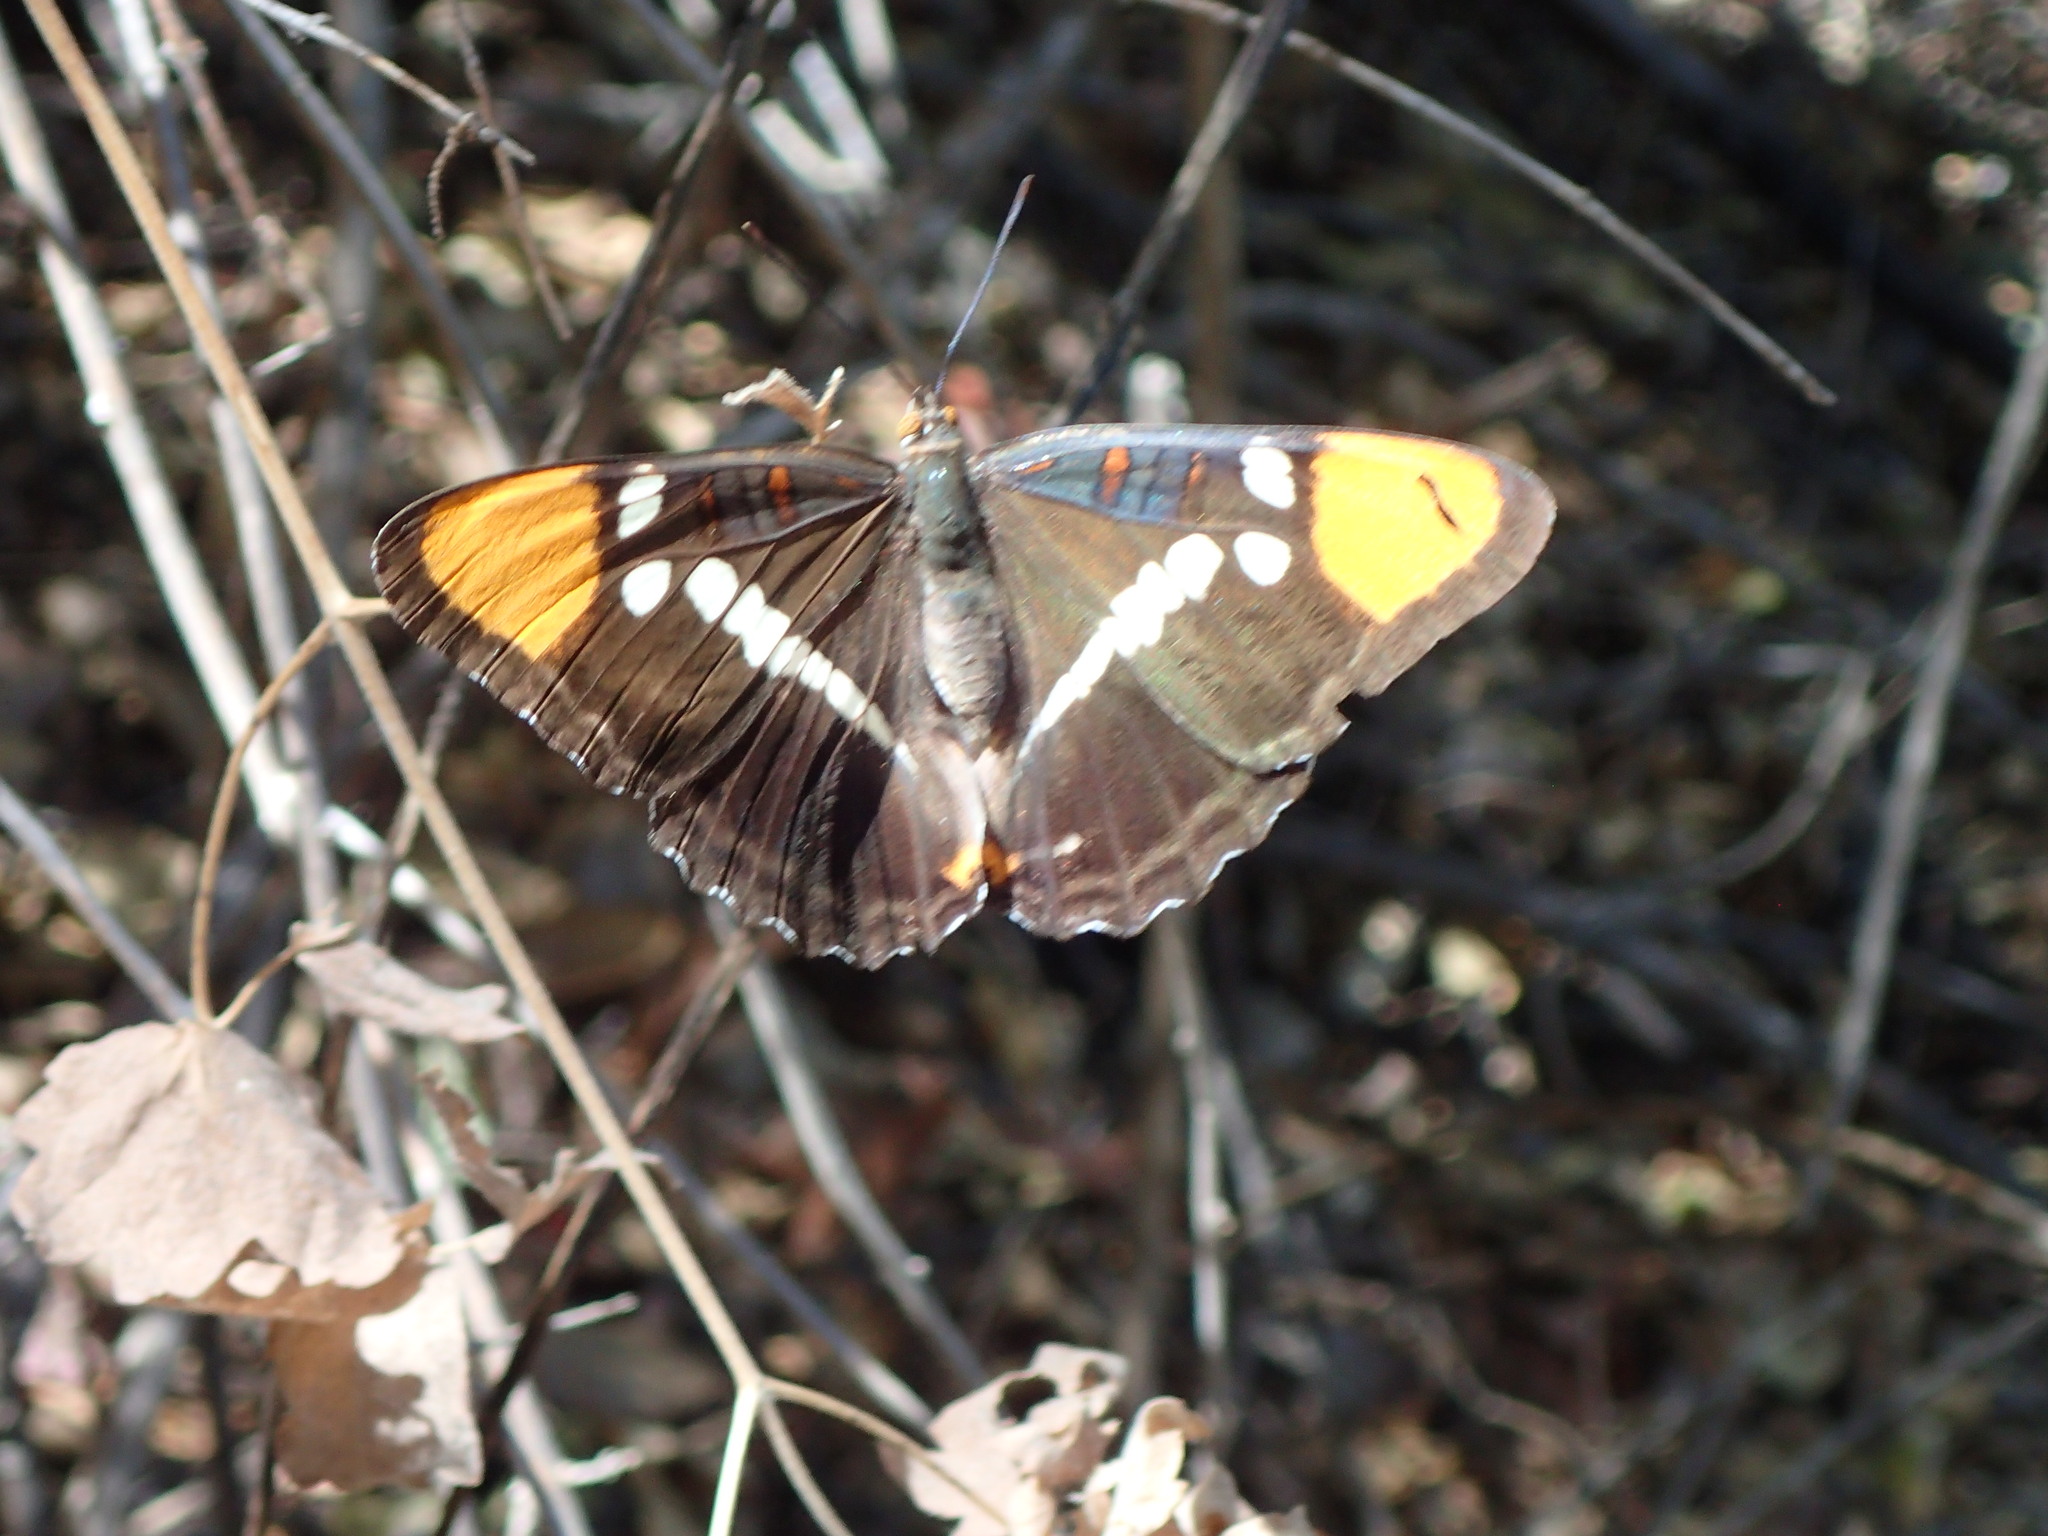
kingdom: Animalia
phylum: Arthropoda
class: Insecta
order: Lepidoptera
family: Nymphalidae
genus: Limenitis
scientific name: Limenitis bredowii
